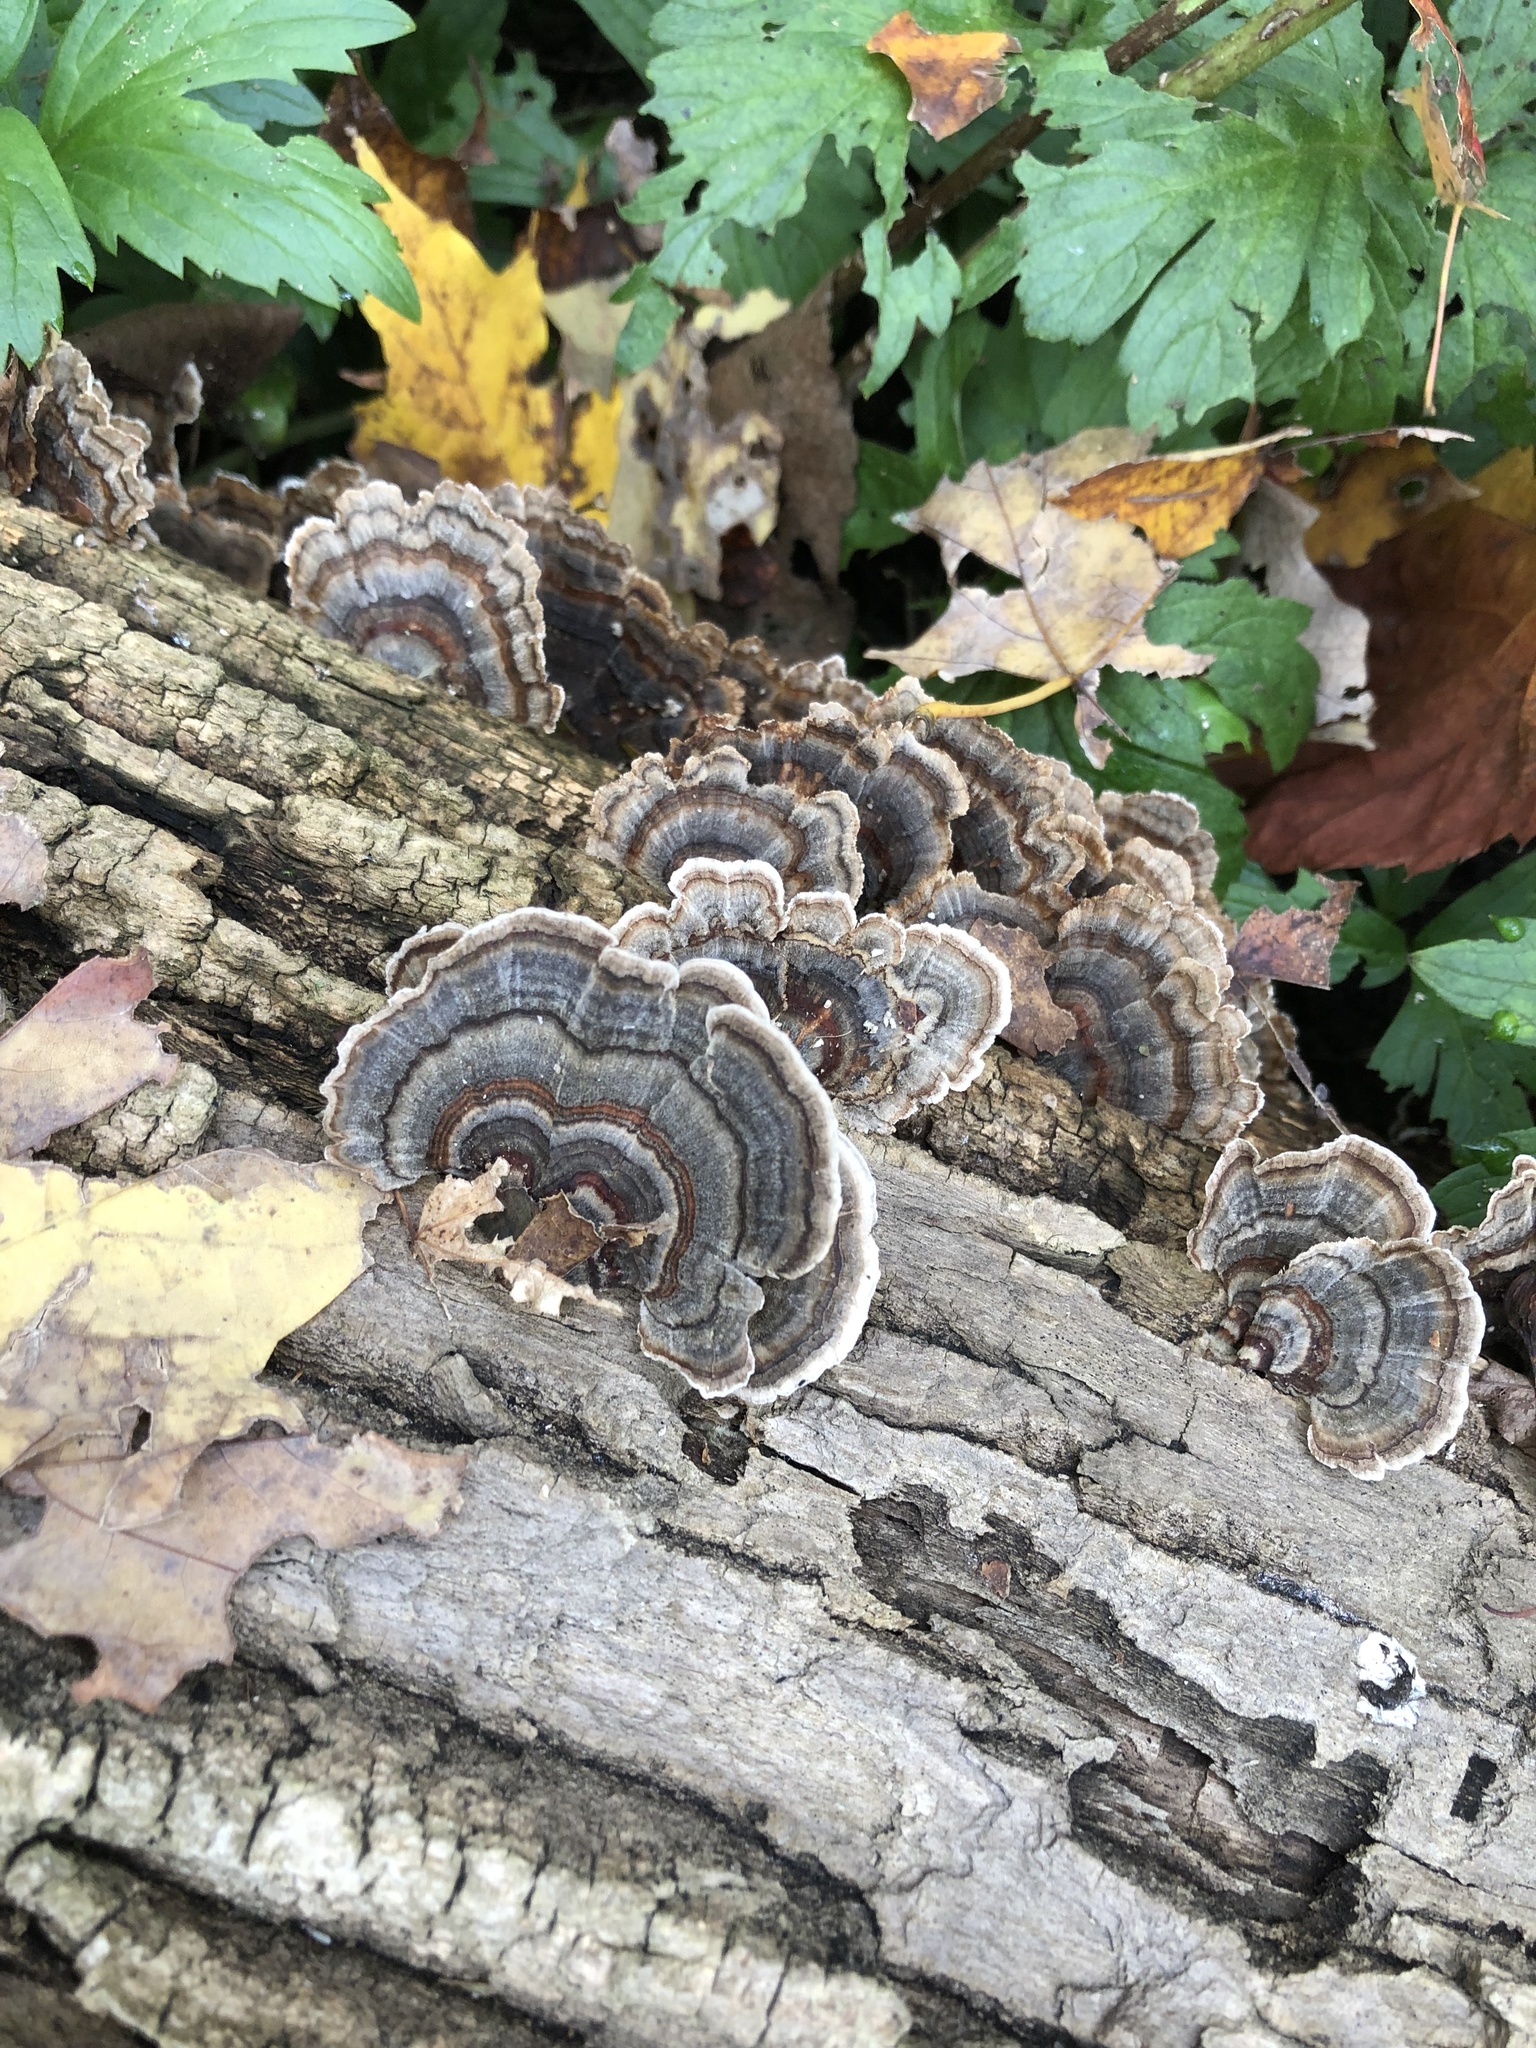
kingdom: Fungi
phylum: Basidiomycota
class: Agaricomycetes
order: Polyporales
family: Polyporaceae
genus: Trametes
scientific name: Trametes versicolor
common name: Turkeytail
